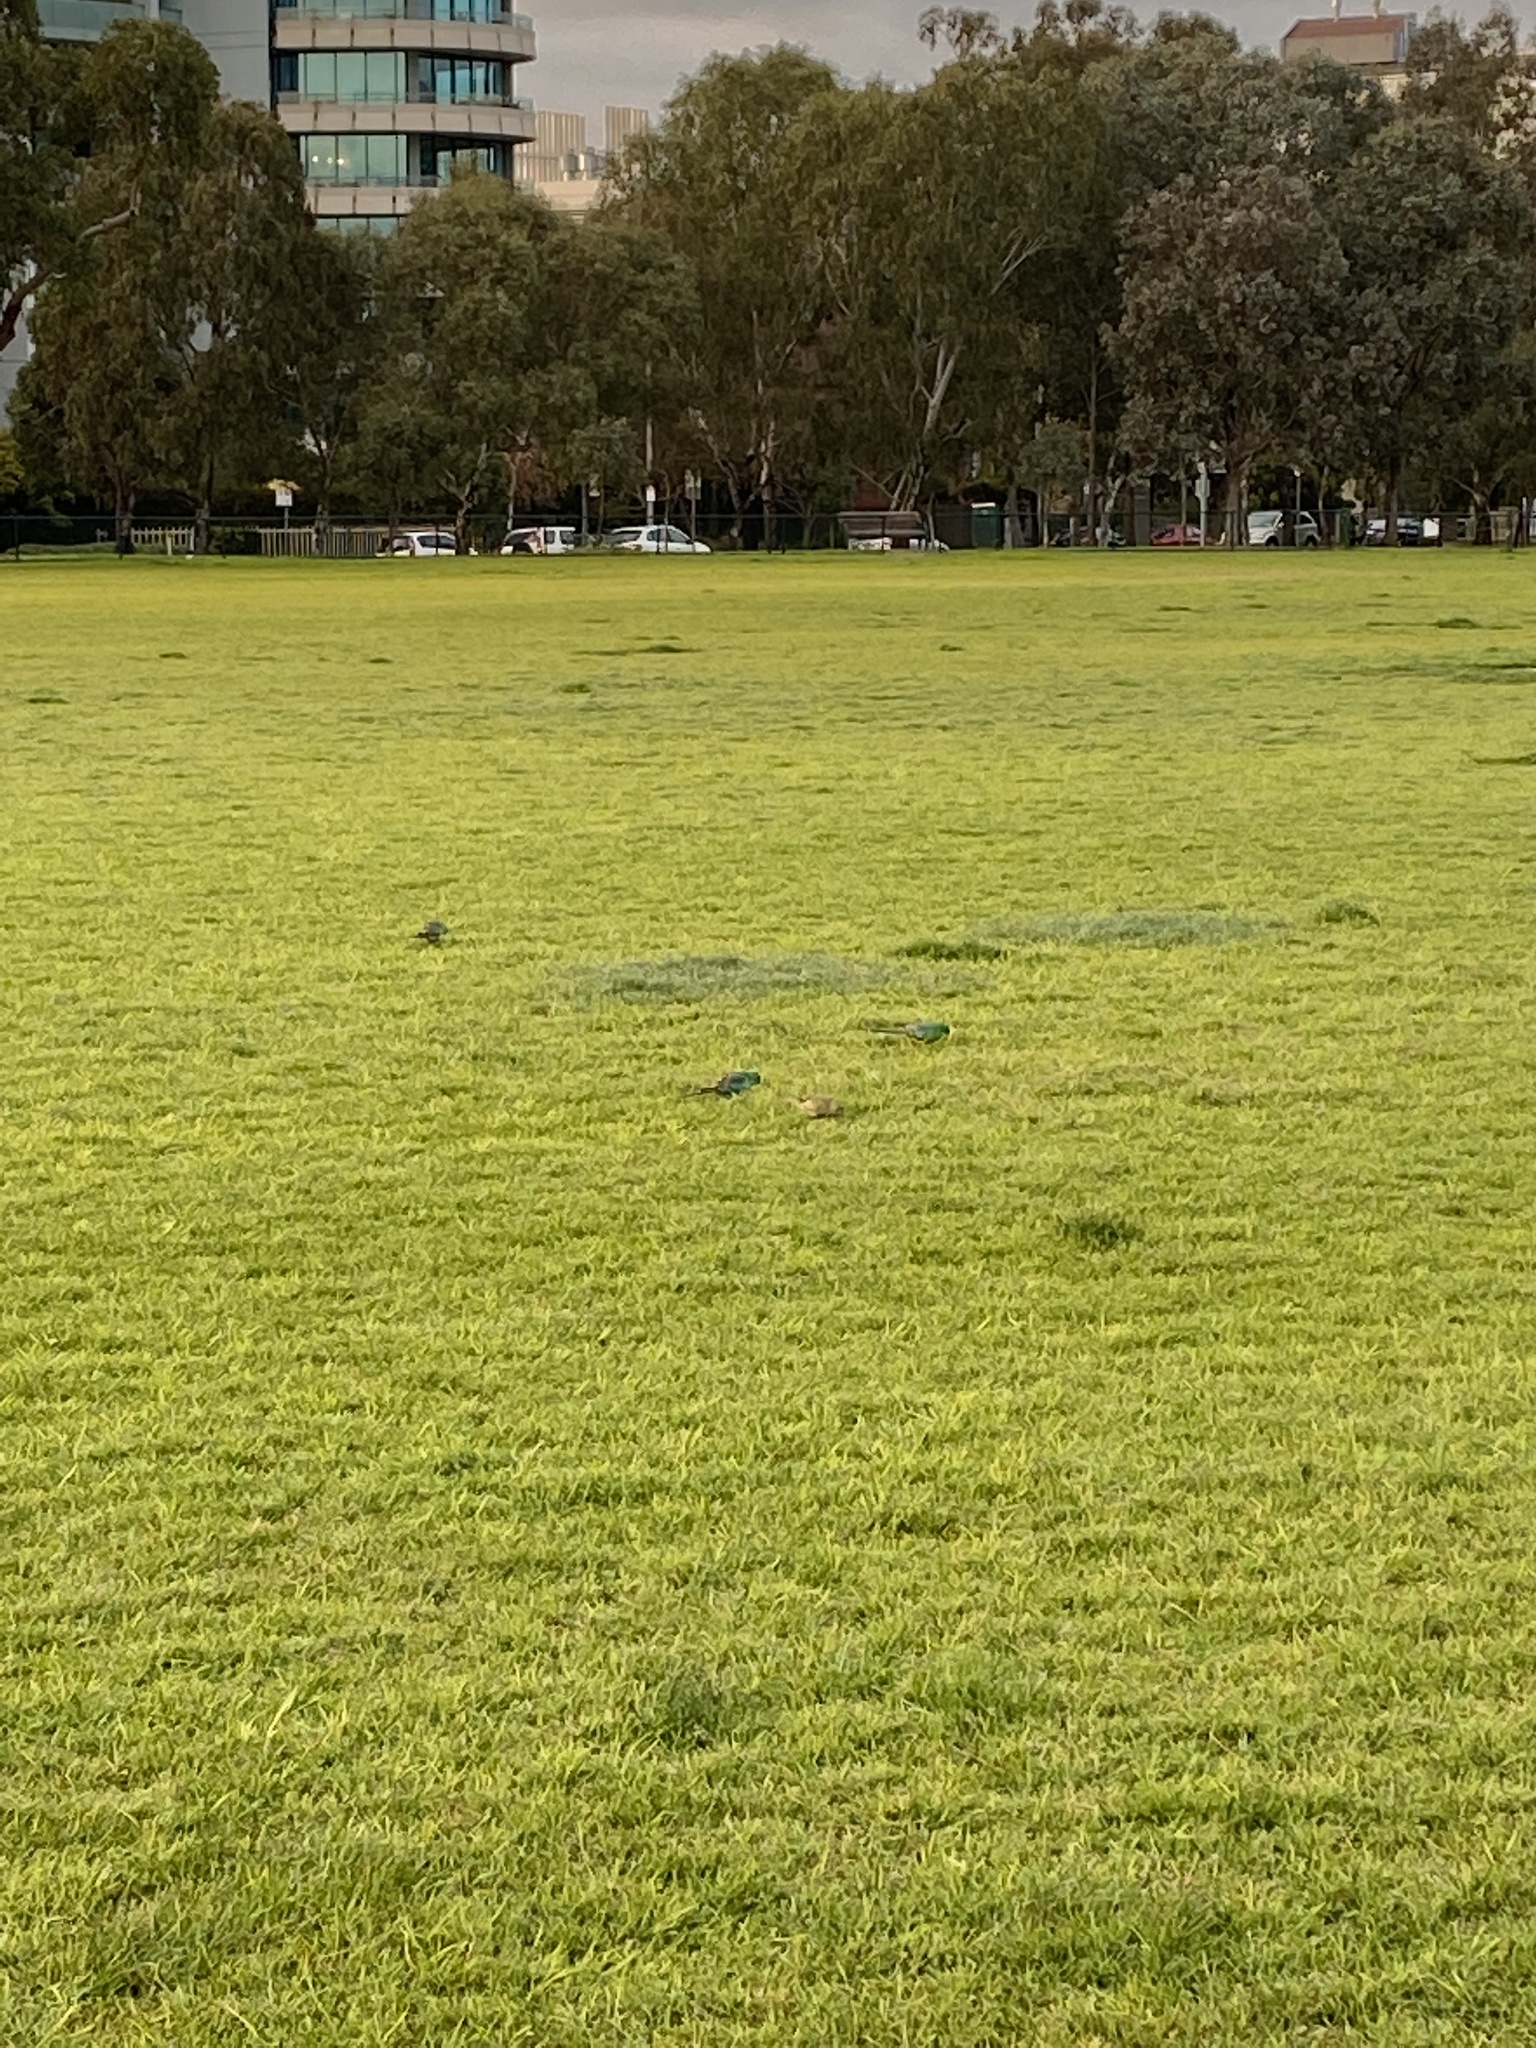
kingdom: Animalia
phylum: Chordata
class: Aves
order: Psittaciformes
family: Psittacidae
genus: Psephotus
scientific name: Psephotus haematonotus
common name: Red-rumped parrot
